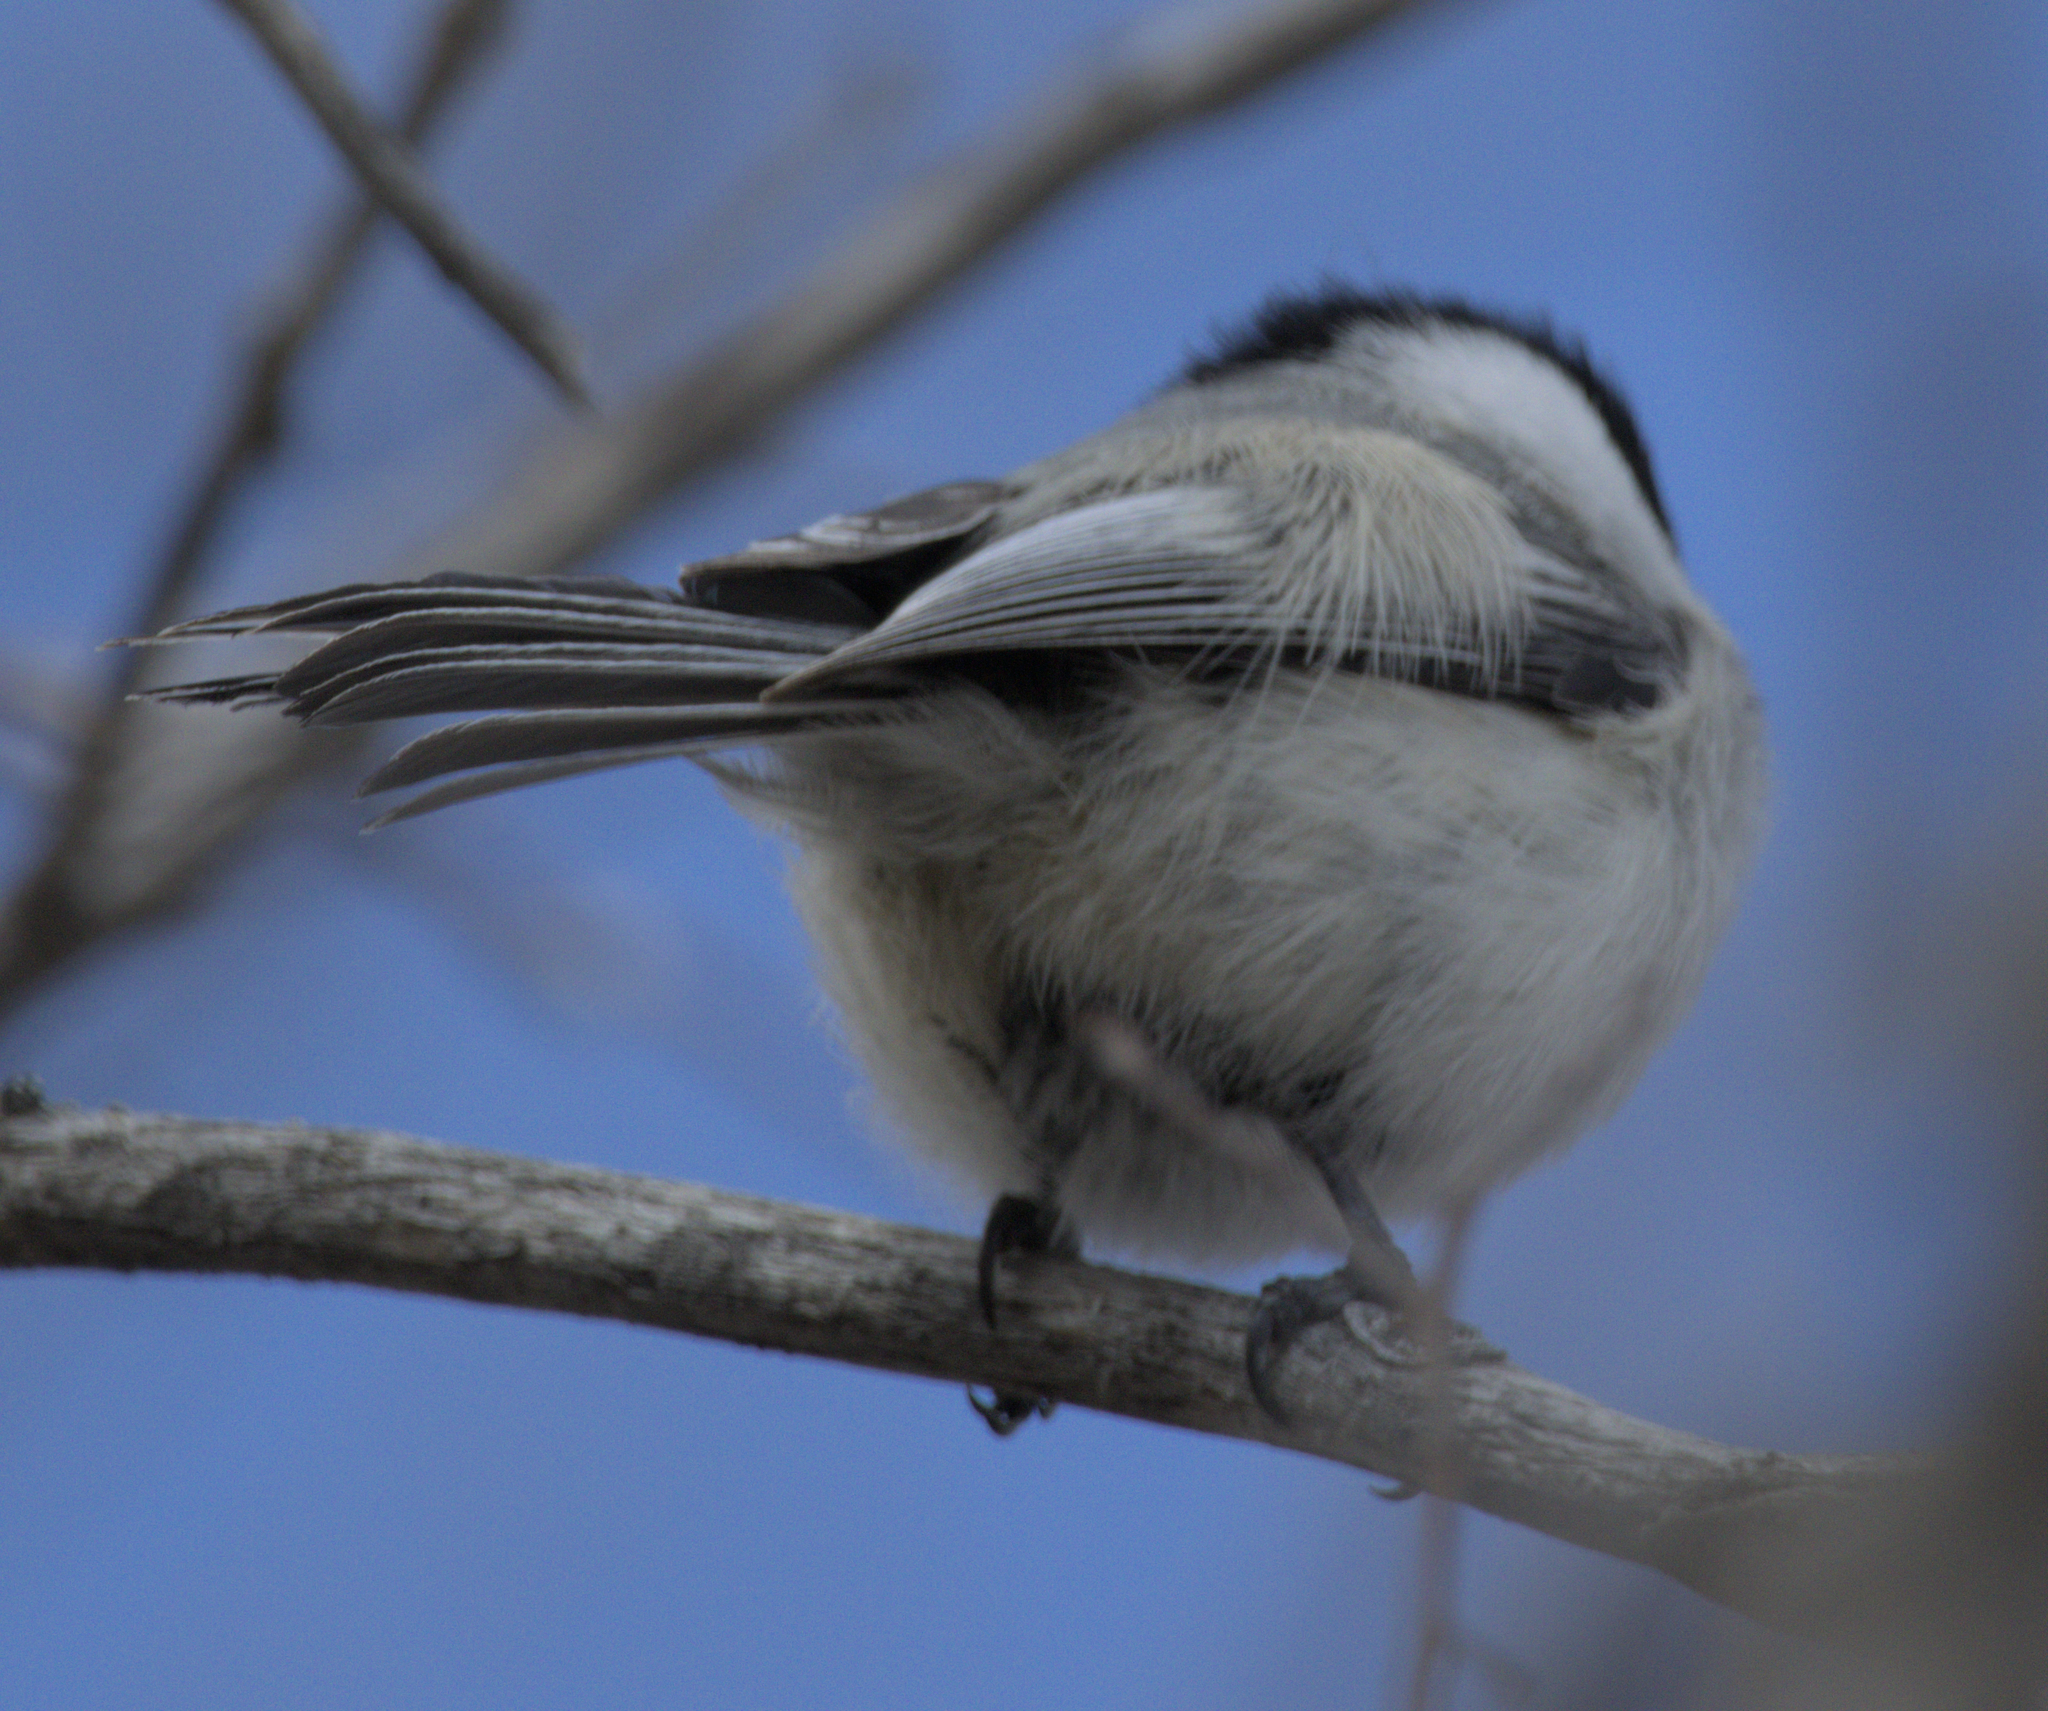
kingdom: Animalia
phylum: Chordata
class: Aves
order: Passeriformes
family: Paridae
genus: Poecile
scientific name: Poecile atricapillus
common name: Black-capped chickadee
